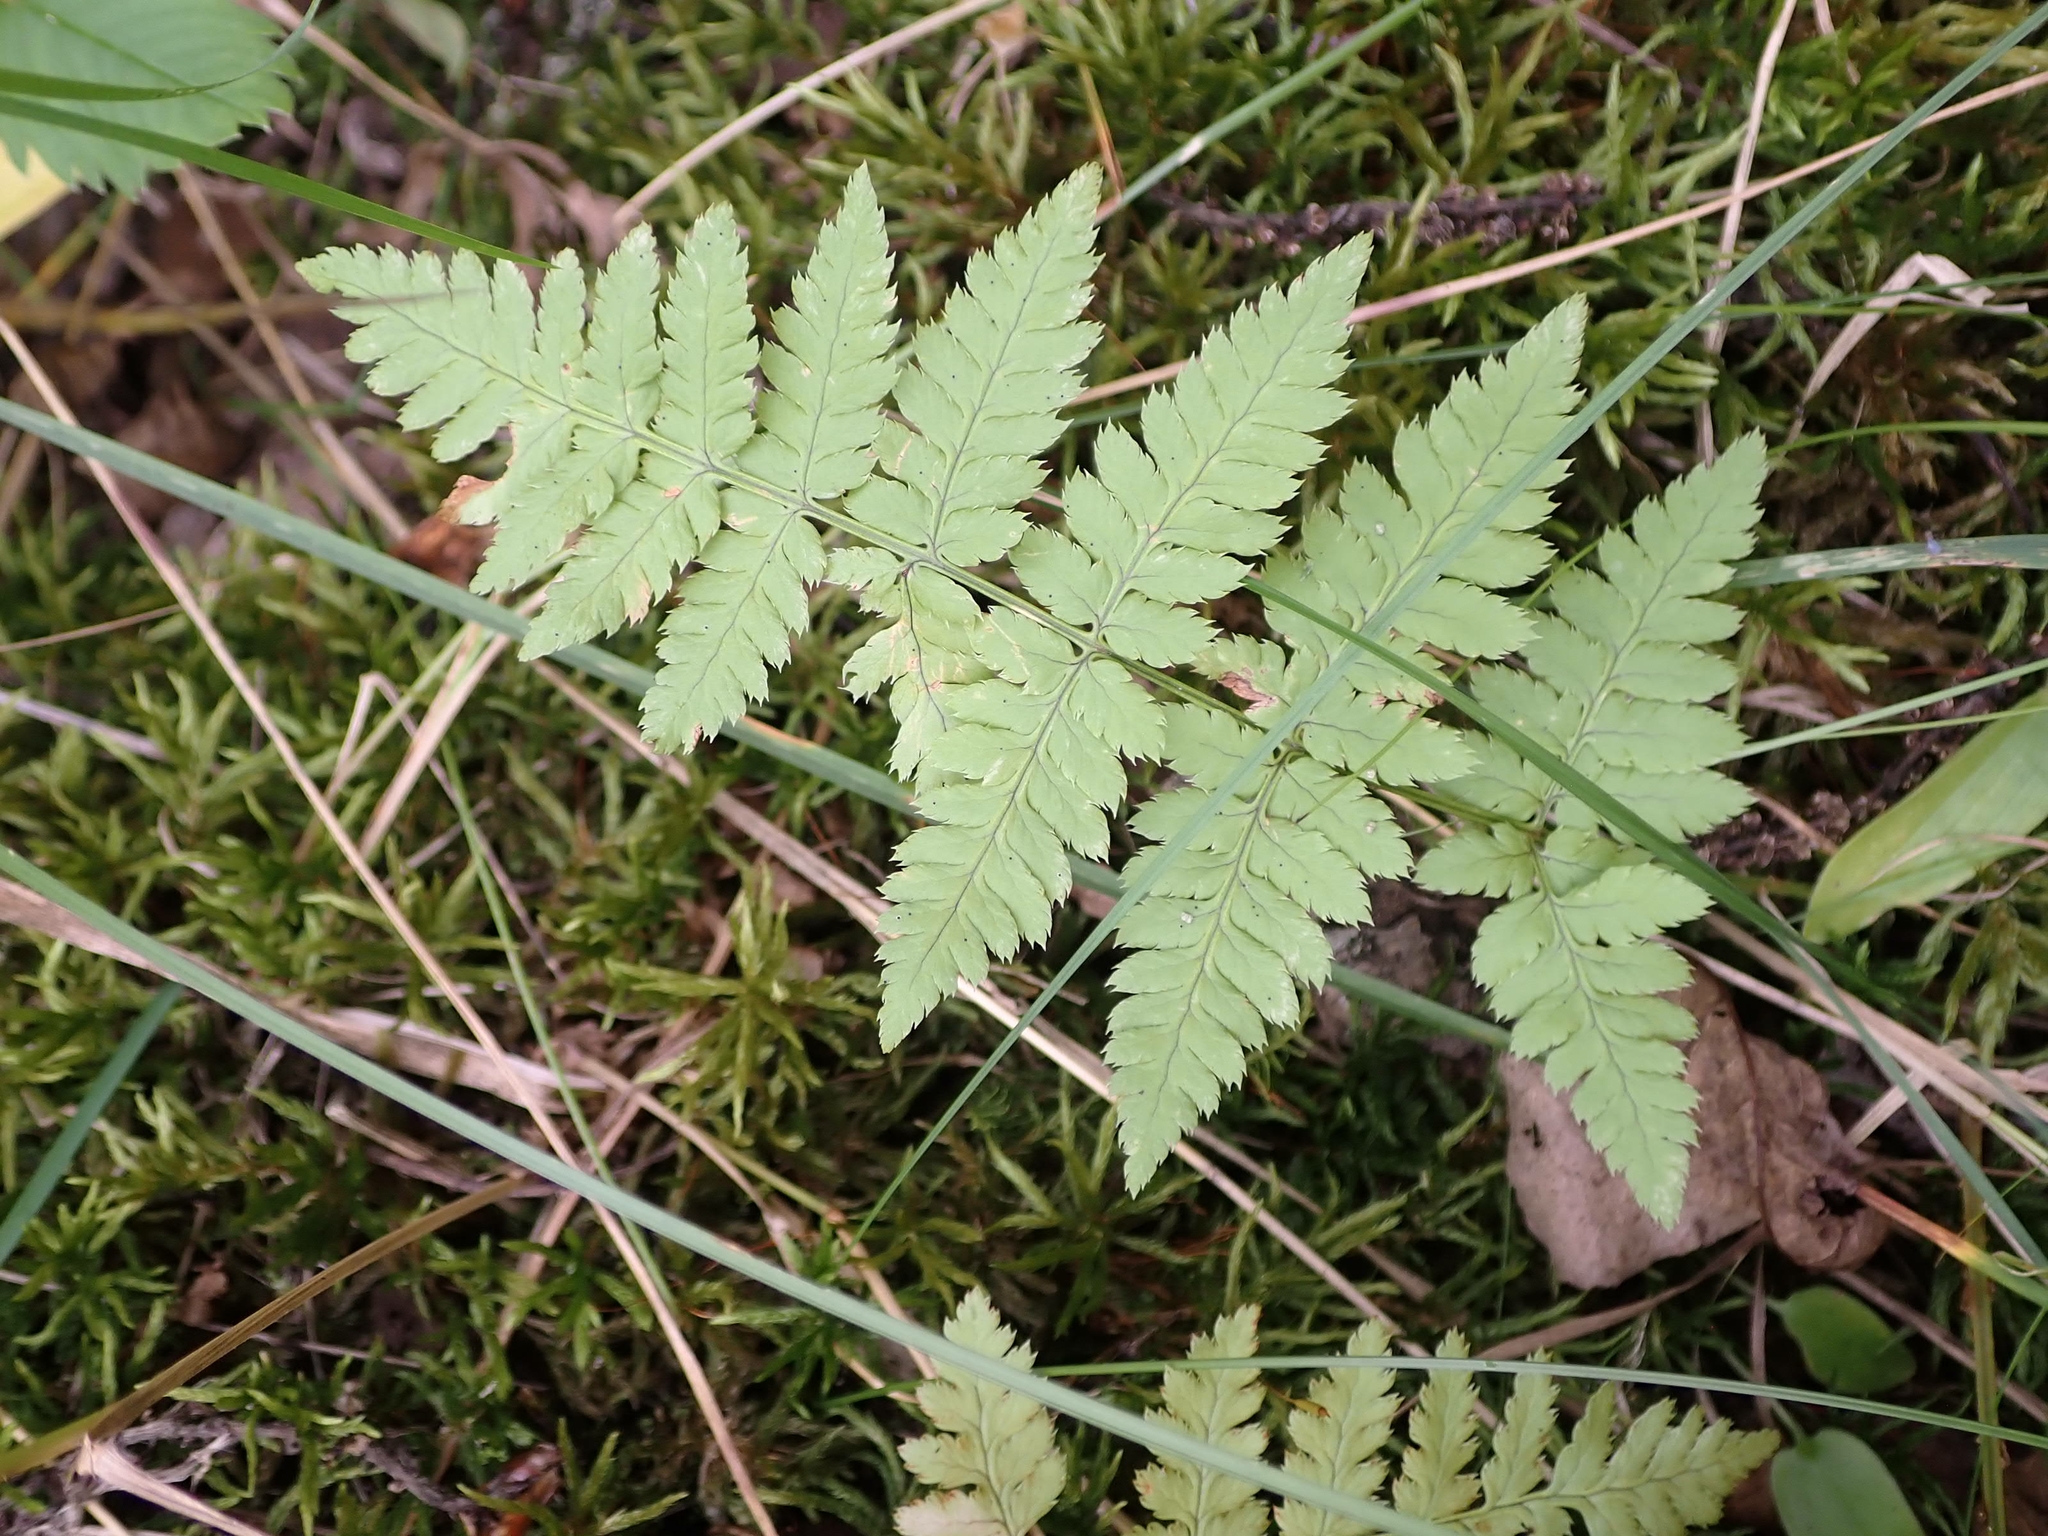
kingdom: Plantae
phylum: Tracheophyta
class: Polypodiopsida
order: Polypodiales
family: Dryopteridaceae
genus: Dryopteris
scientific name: Dryopteris carthusiana
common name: Narrow buckler-fern
